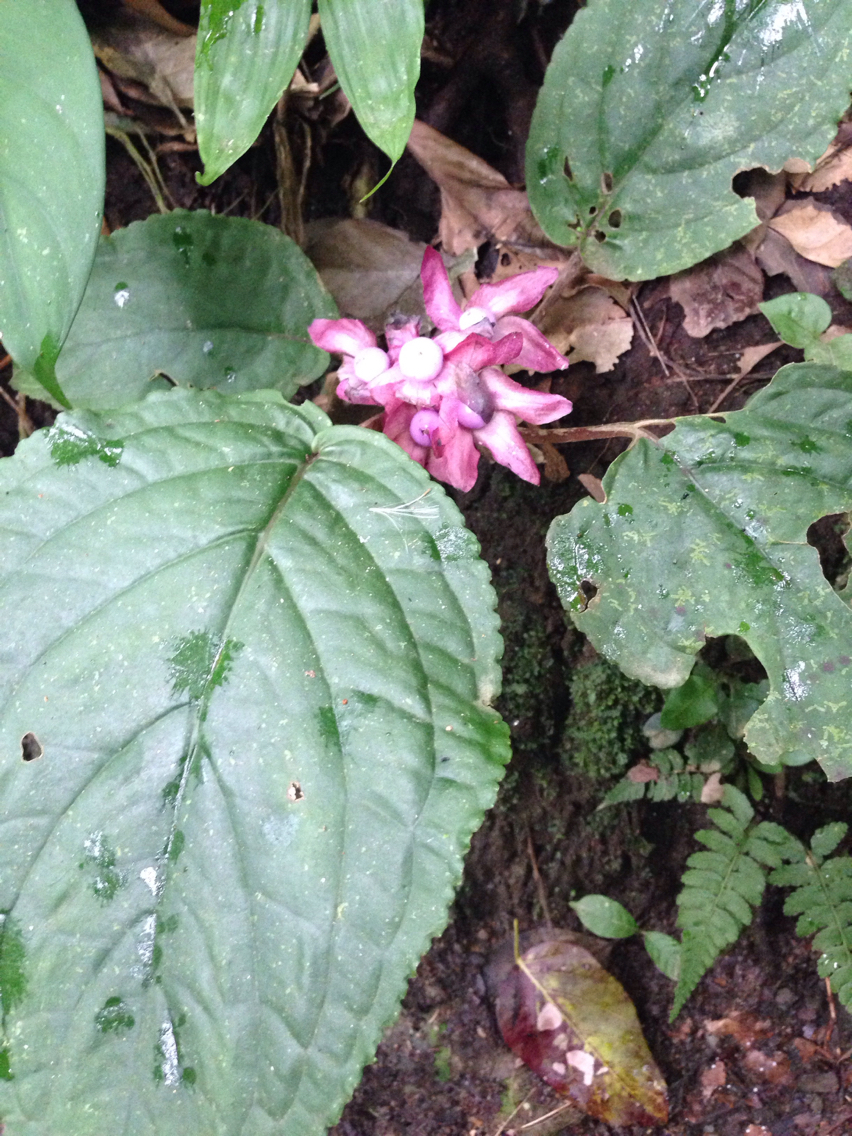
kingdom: Plantae
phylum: Tracheophyta
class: Magnoliopsida
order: Lamiales
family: Gesneriaceae
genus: Drymonia
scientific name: Drymonia turrialvae
